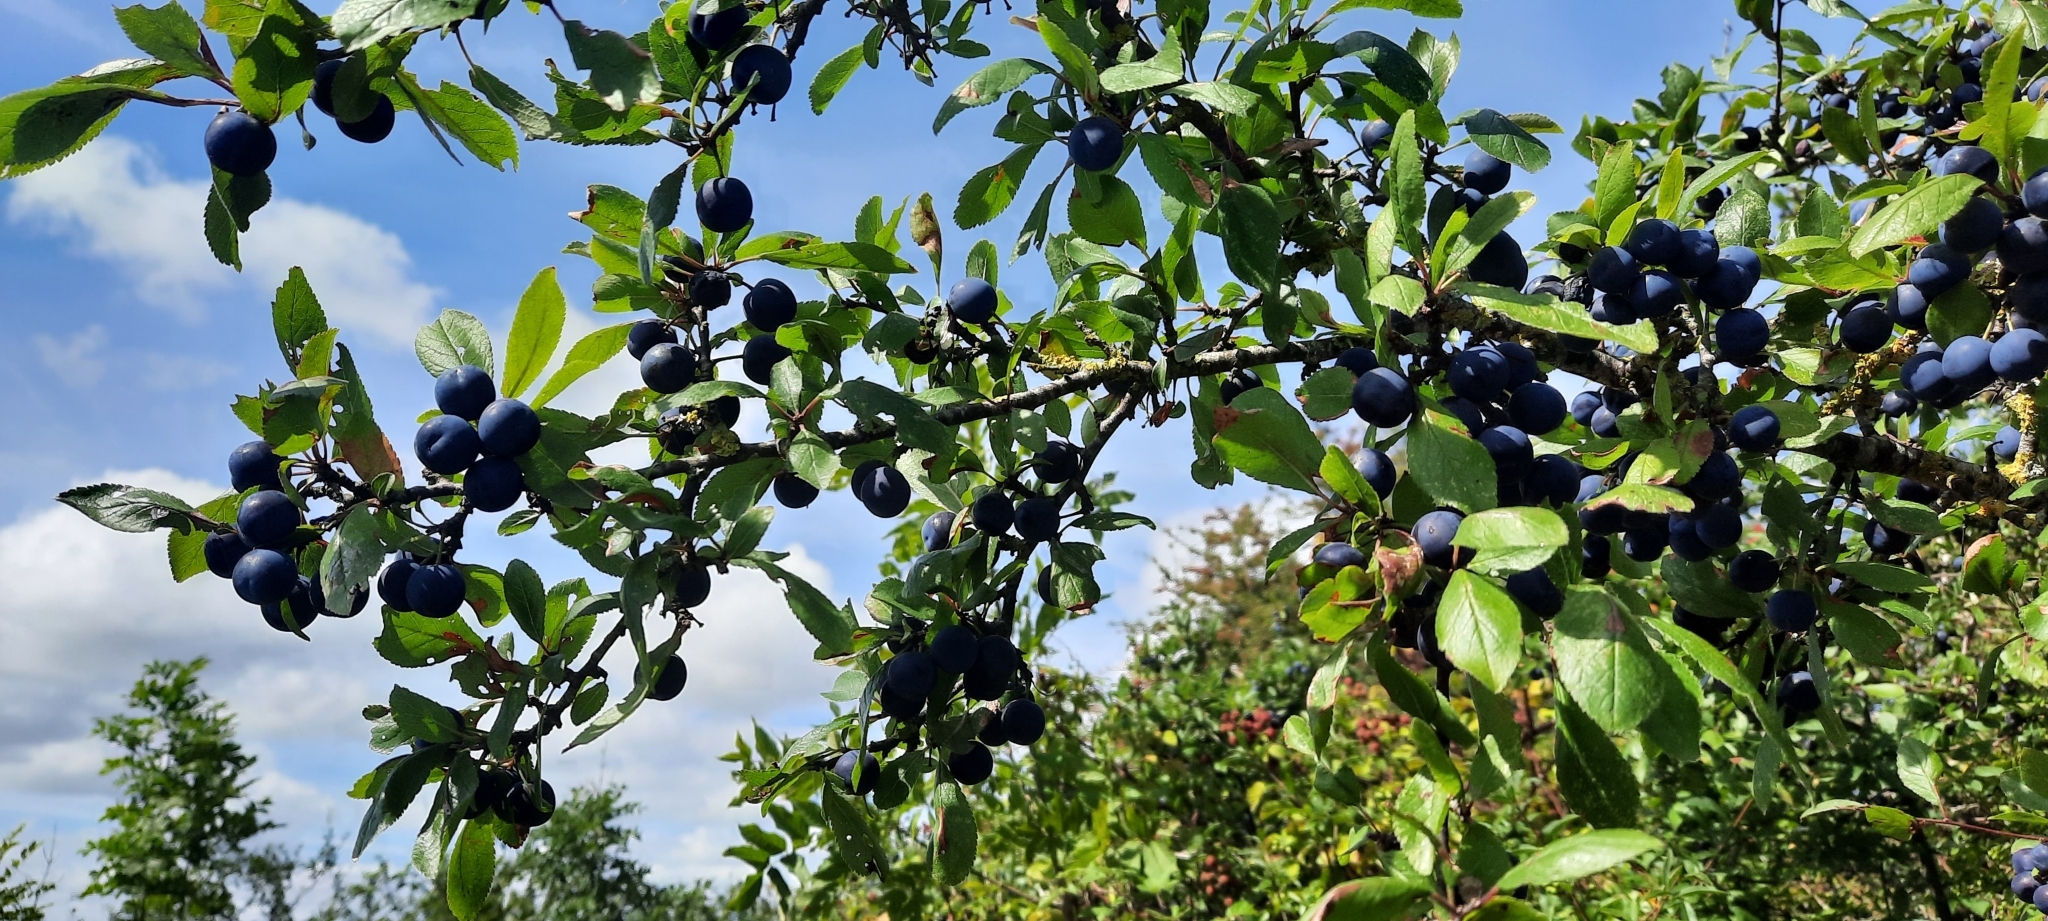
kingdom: Plantae
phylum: Tracheophyta
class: Magnoliopsida
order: Rosales
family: Rosaceae
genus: Prunus
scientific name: Prunus spinosa
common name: Blackthorn
